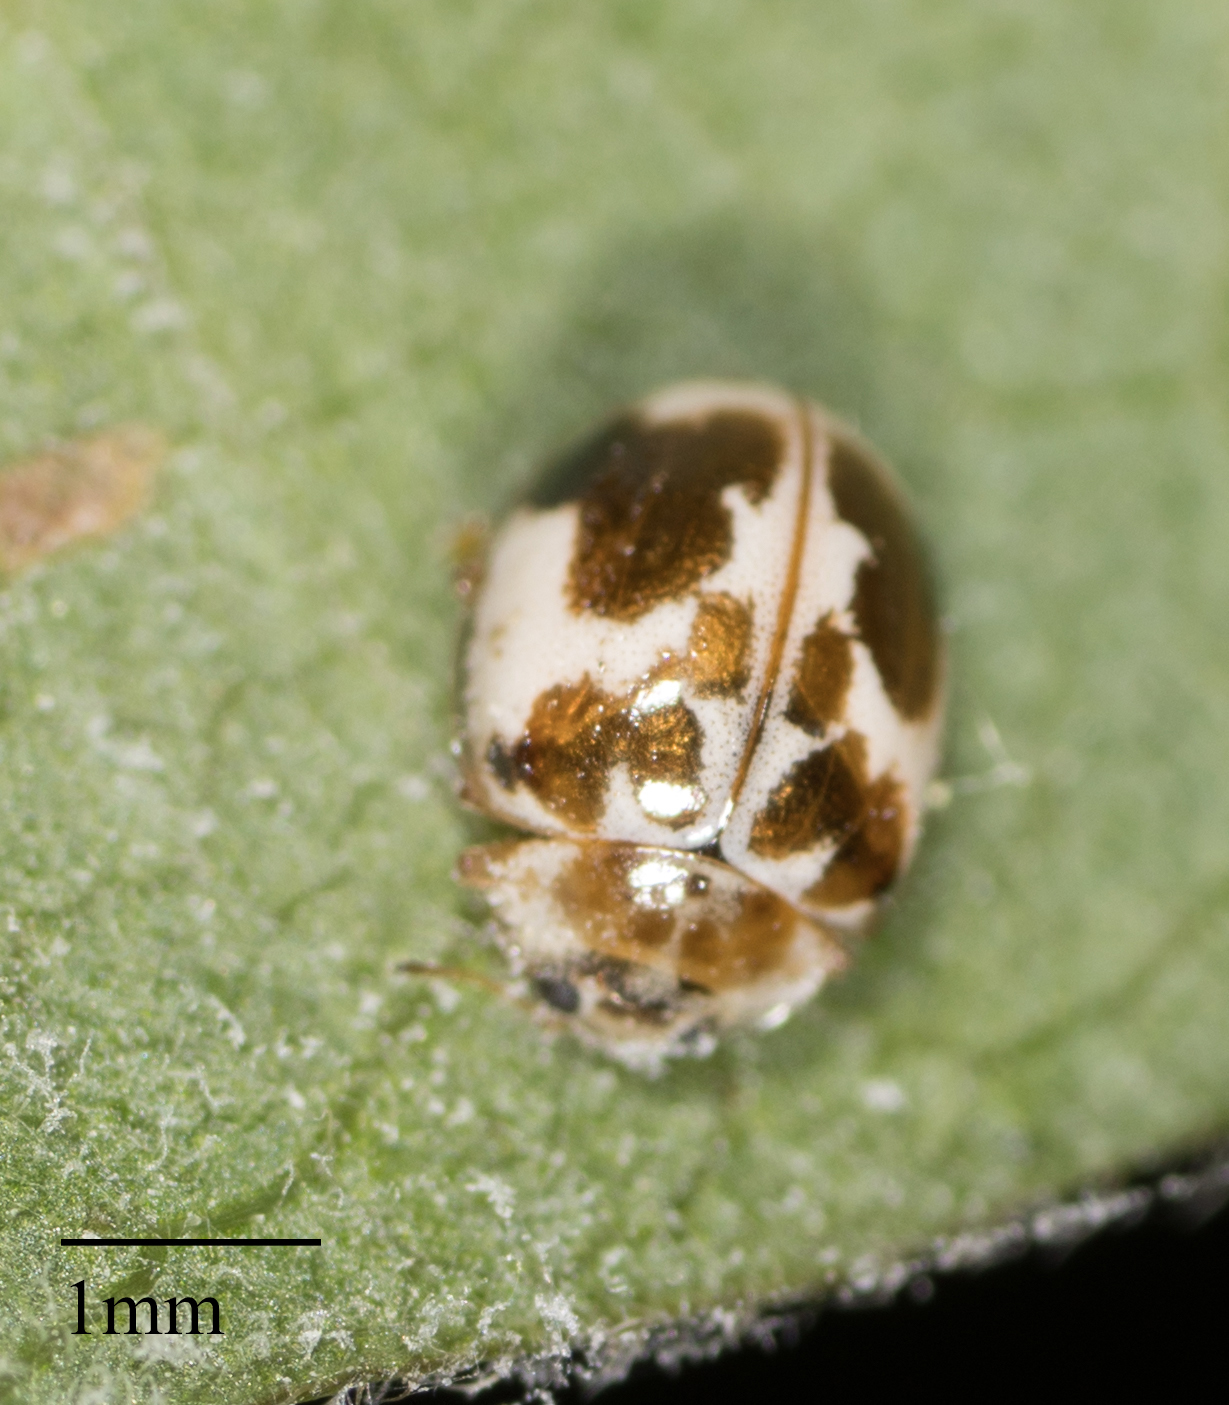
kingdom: Animalia
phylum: Arthropoda
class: Insecta
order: Coleoptera
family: Coccinellidae
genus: Psyllobora
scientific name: Psyllobora renifer
